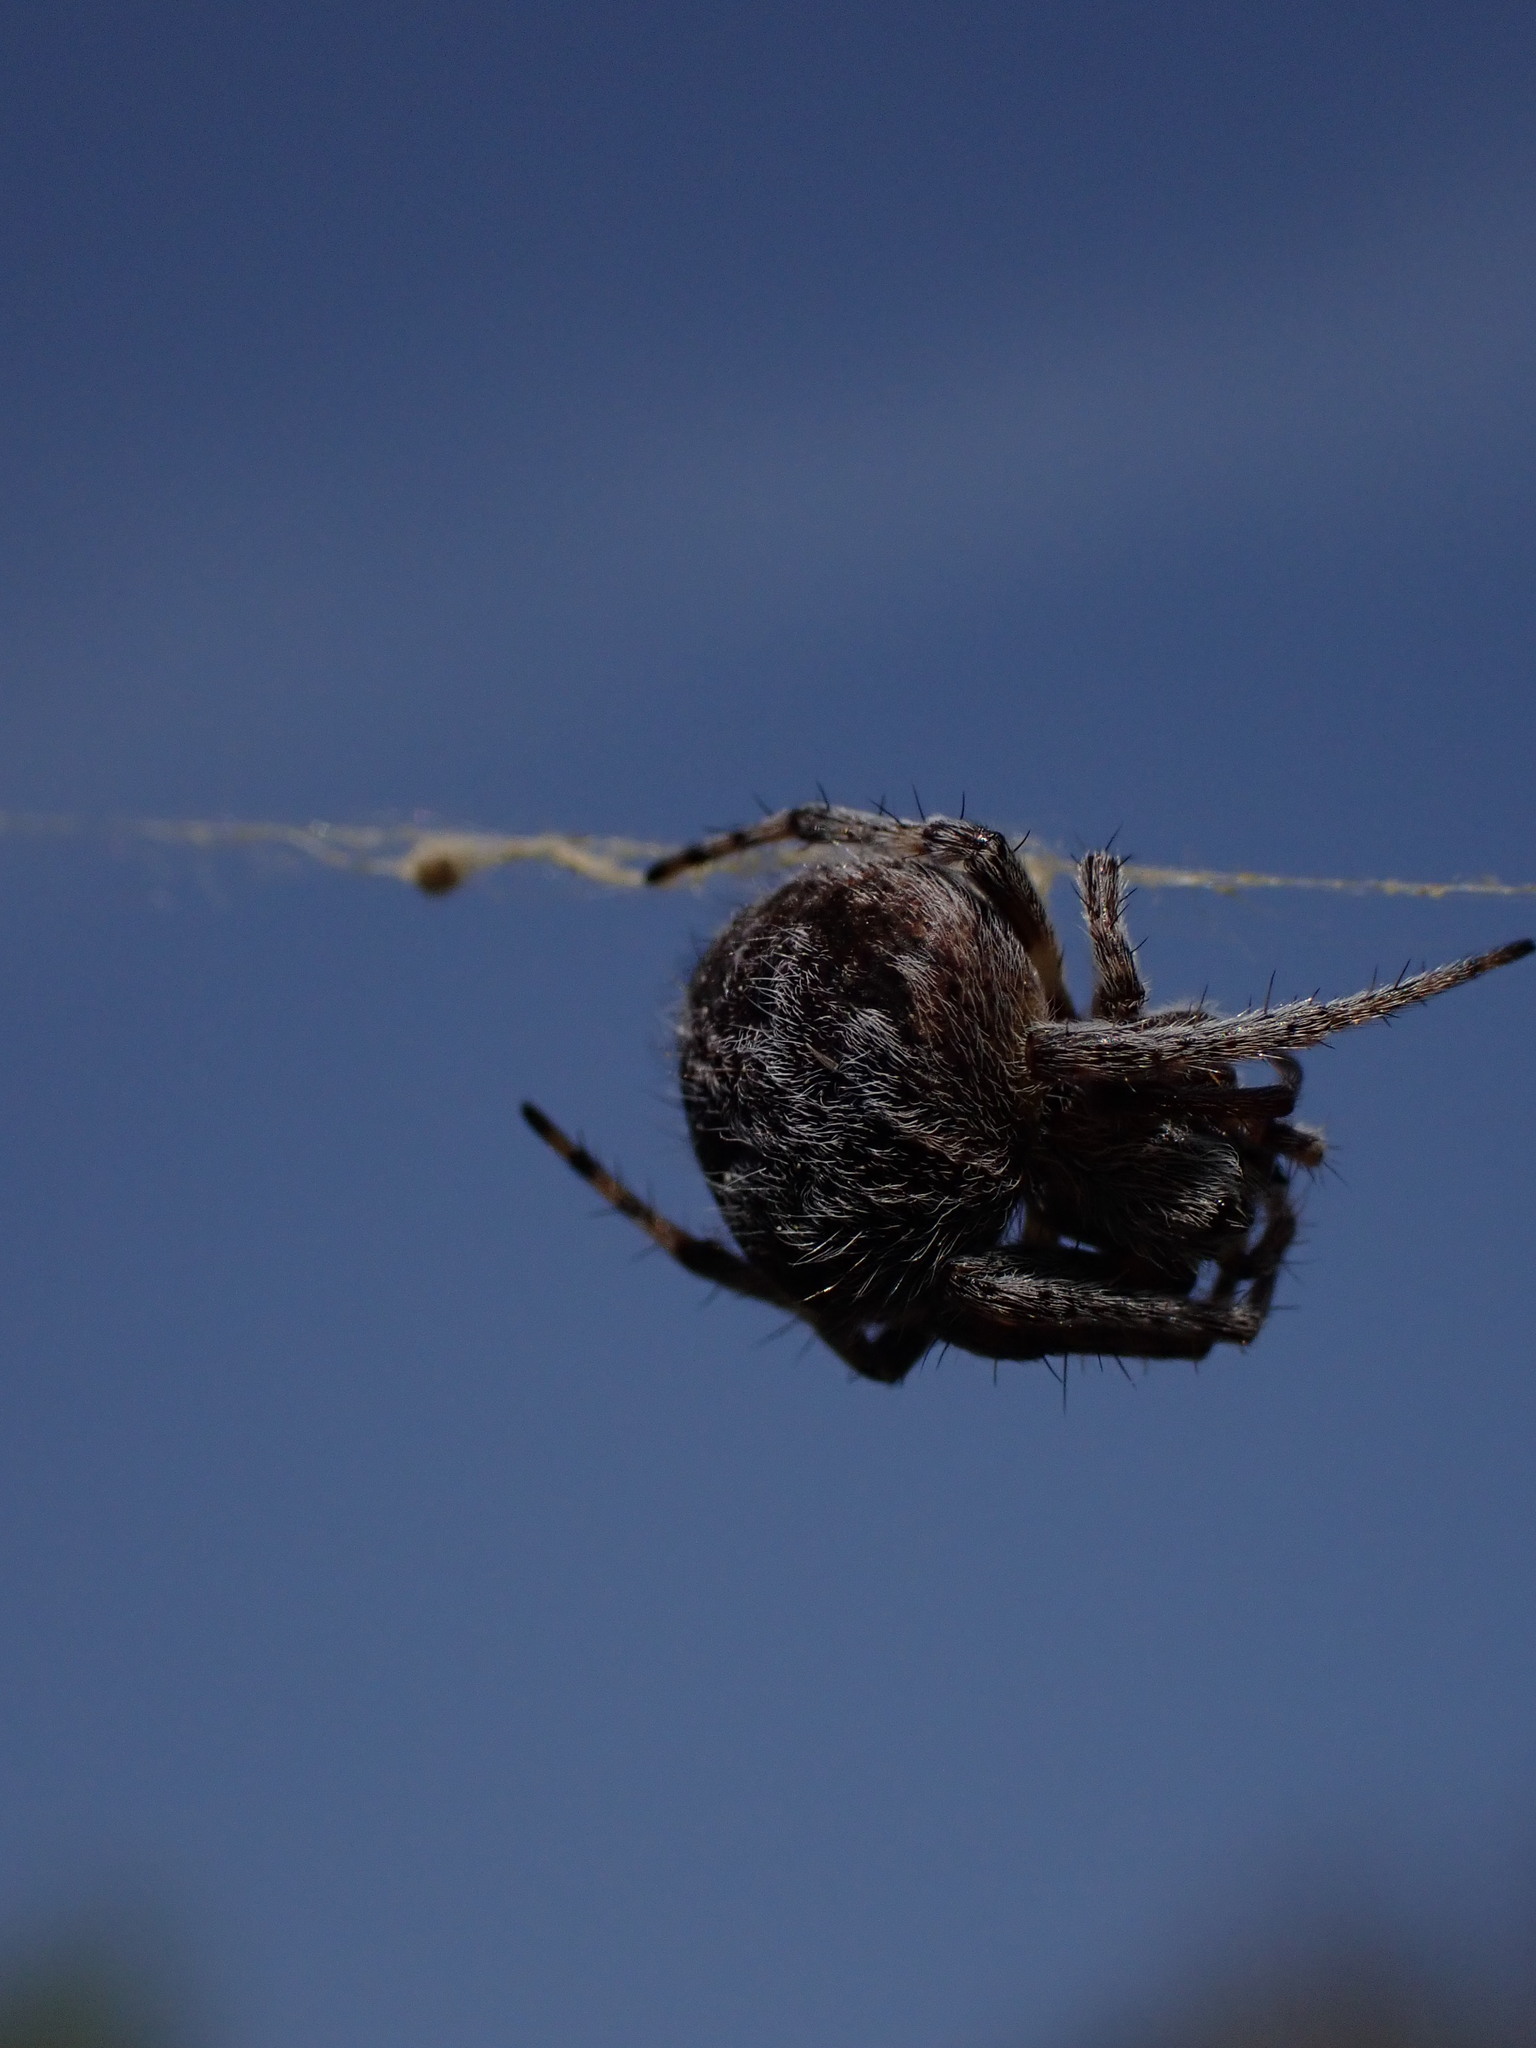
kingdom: Animalia
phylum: Arthropoda
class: Arachnida
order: Araneae
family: Araneidae
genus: Agalenatea
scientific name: Agalenatea redii
